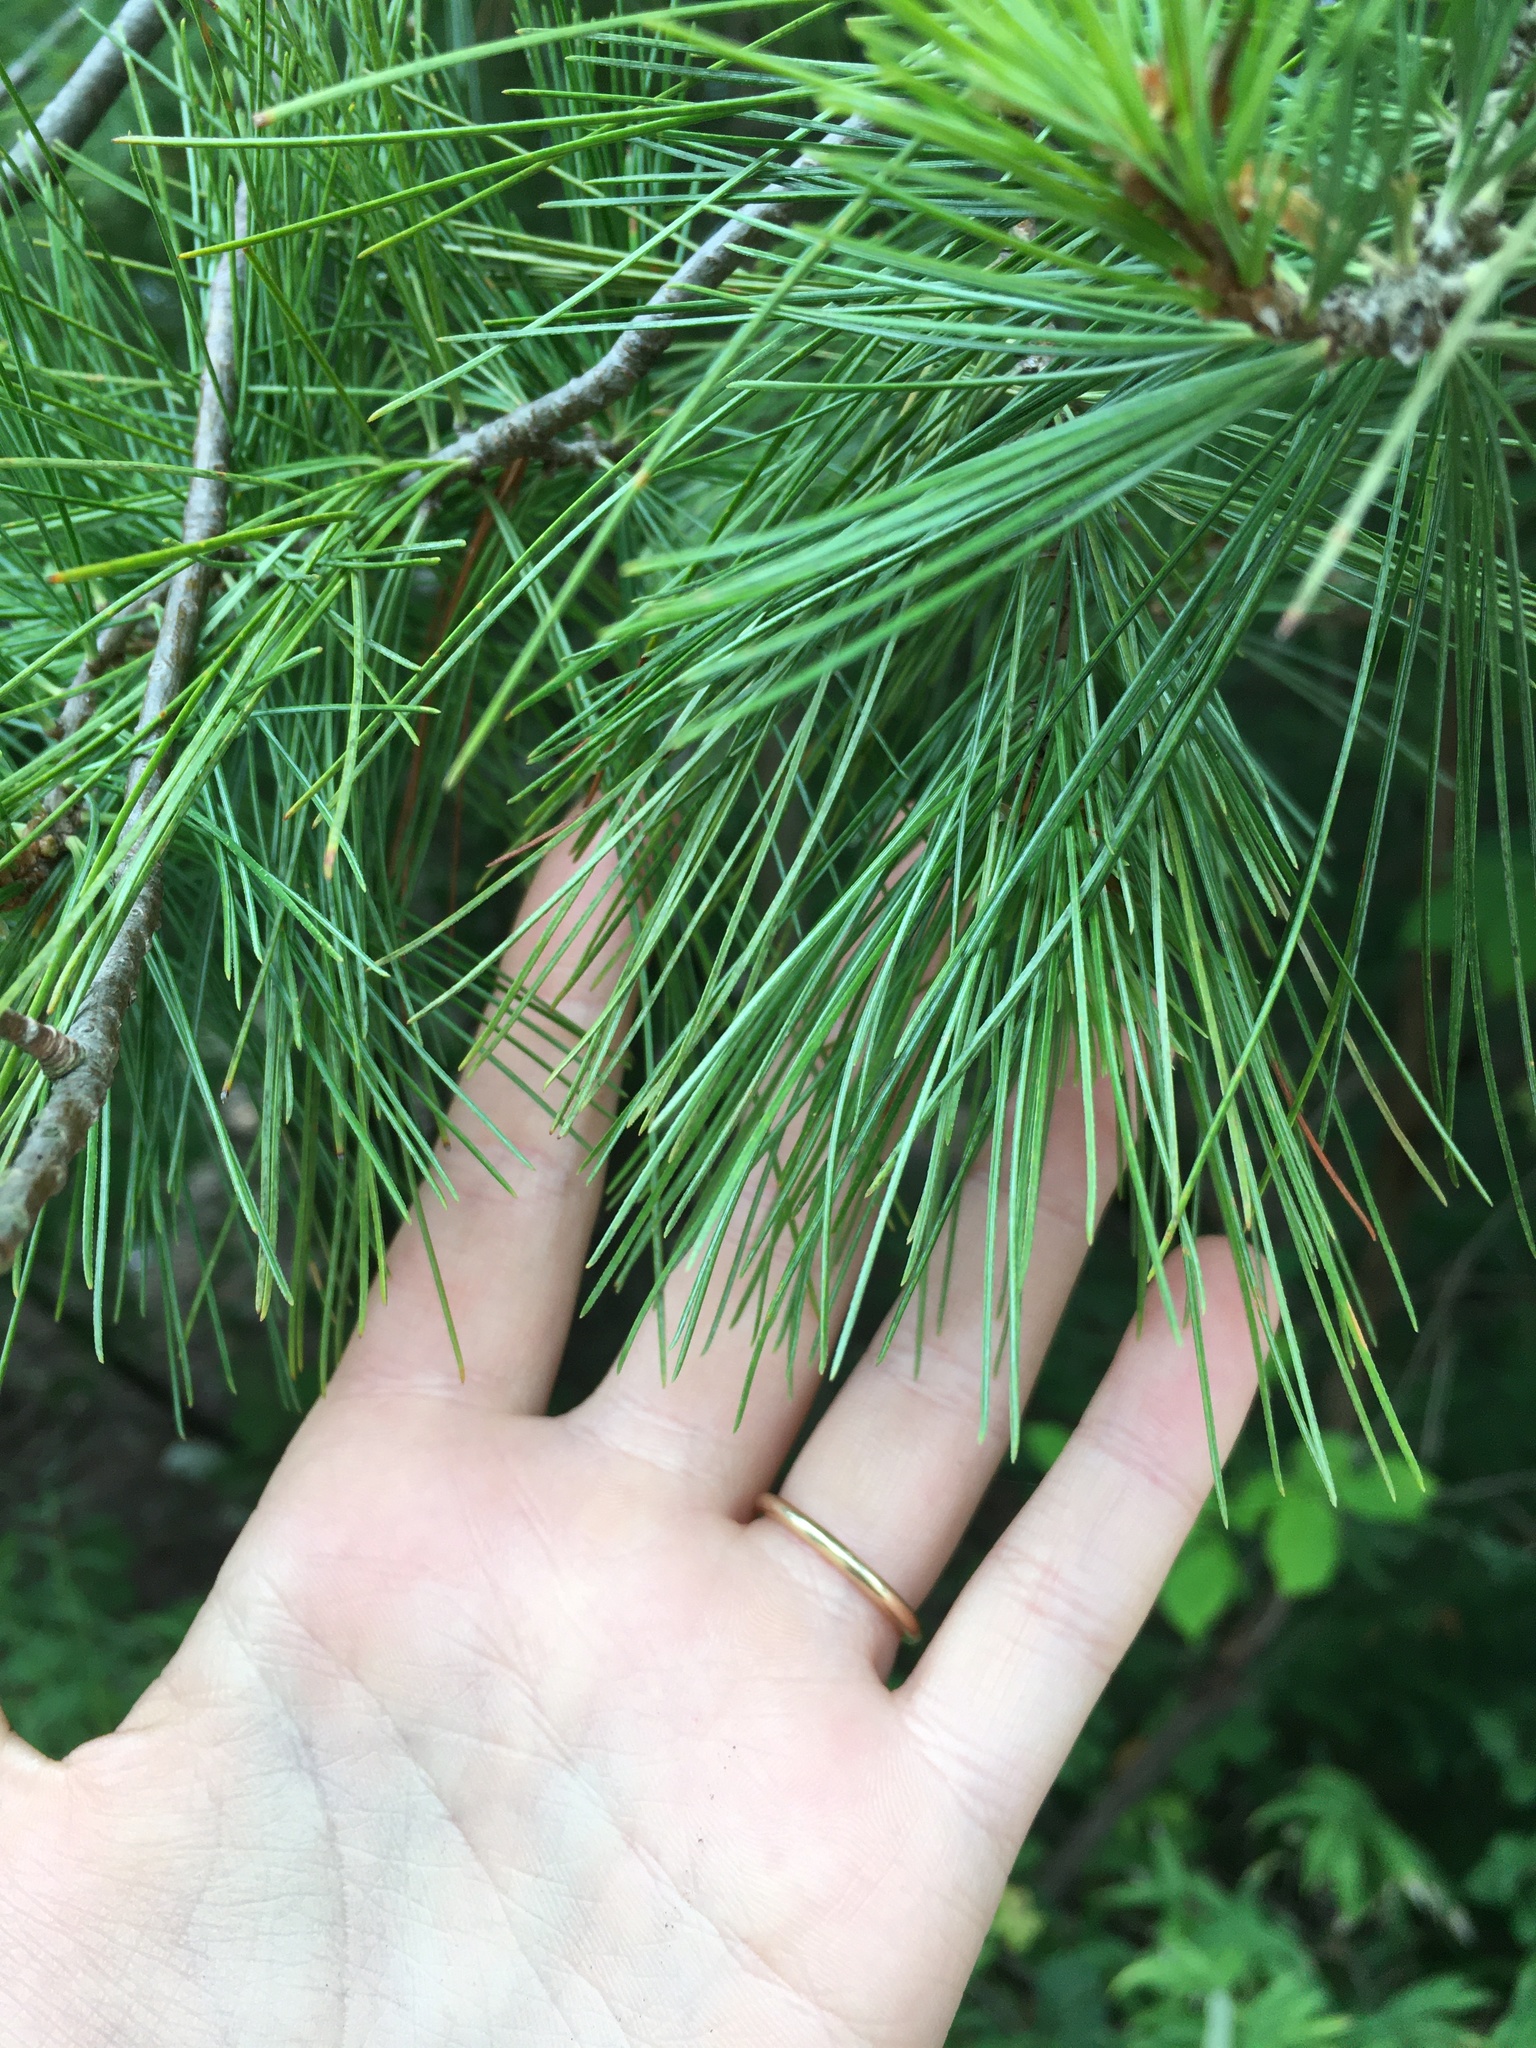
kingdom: Plantae
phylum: Tracheophyta
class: Pinopsida
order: Pinales
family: Pinaceae
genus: Pinus
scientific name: Pinus strobus
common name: Weymouth pine
